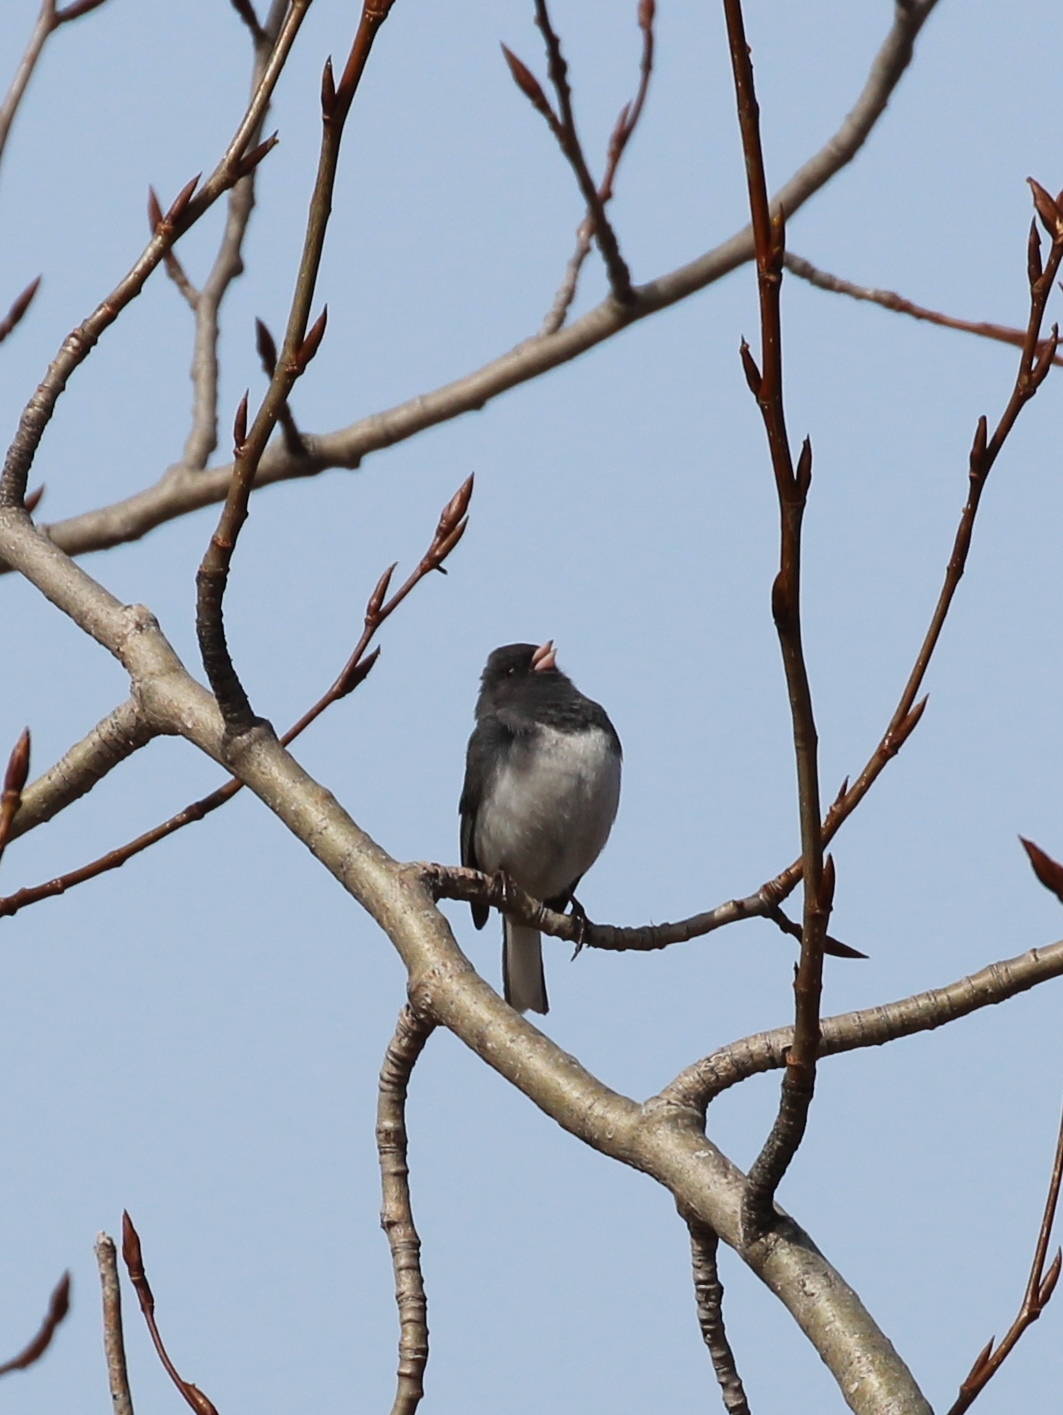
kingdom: Animalia
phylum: Chordata
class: Aves
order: Passeriformes
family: Passerellidae
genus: Junco
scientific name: Junco hyemalis
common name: Dark-eyed junco
